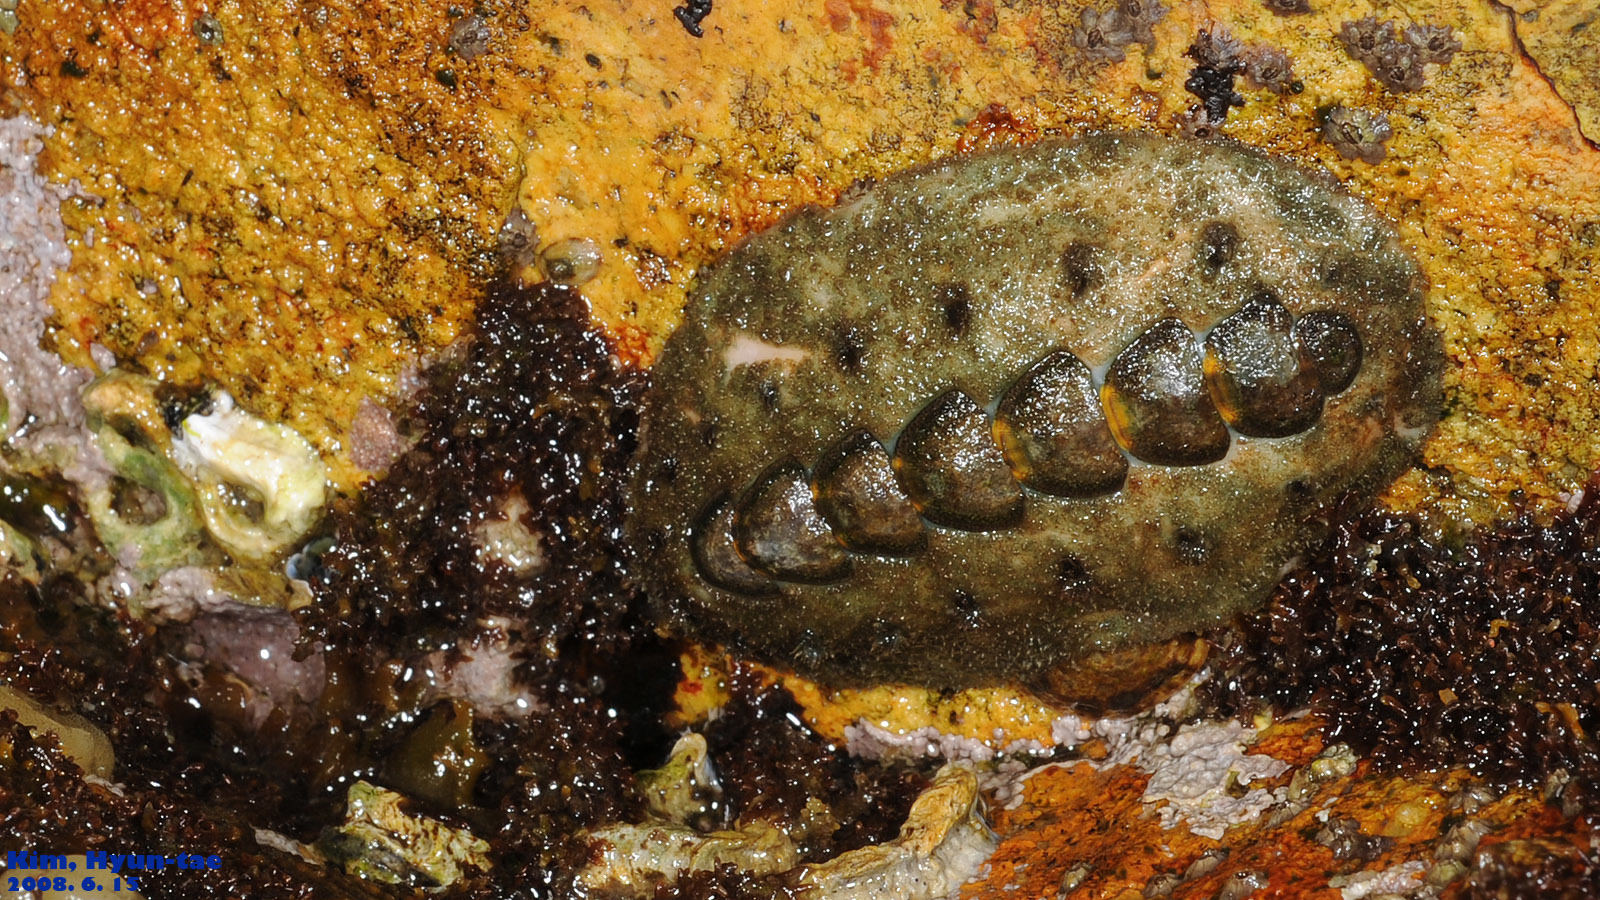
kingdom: Animalia
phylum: Mollusca
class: Polyplacophora
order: Chitonida
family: Acanthochitonidae
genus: Acanthochitona
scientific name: Acanthochitona defilippii
